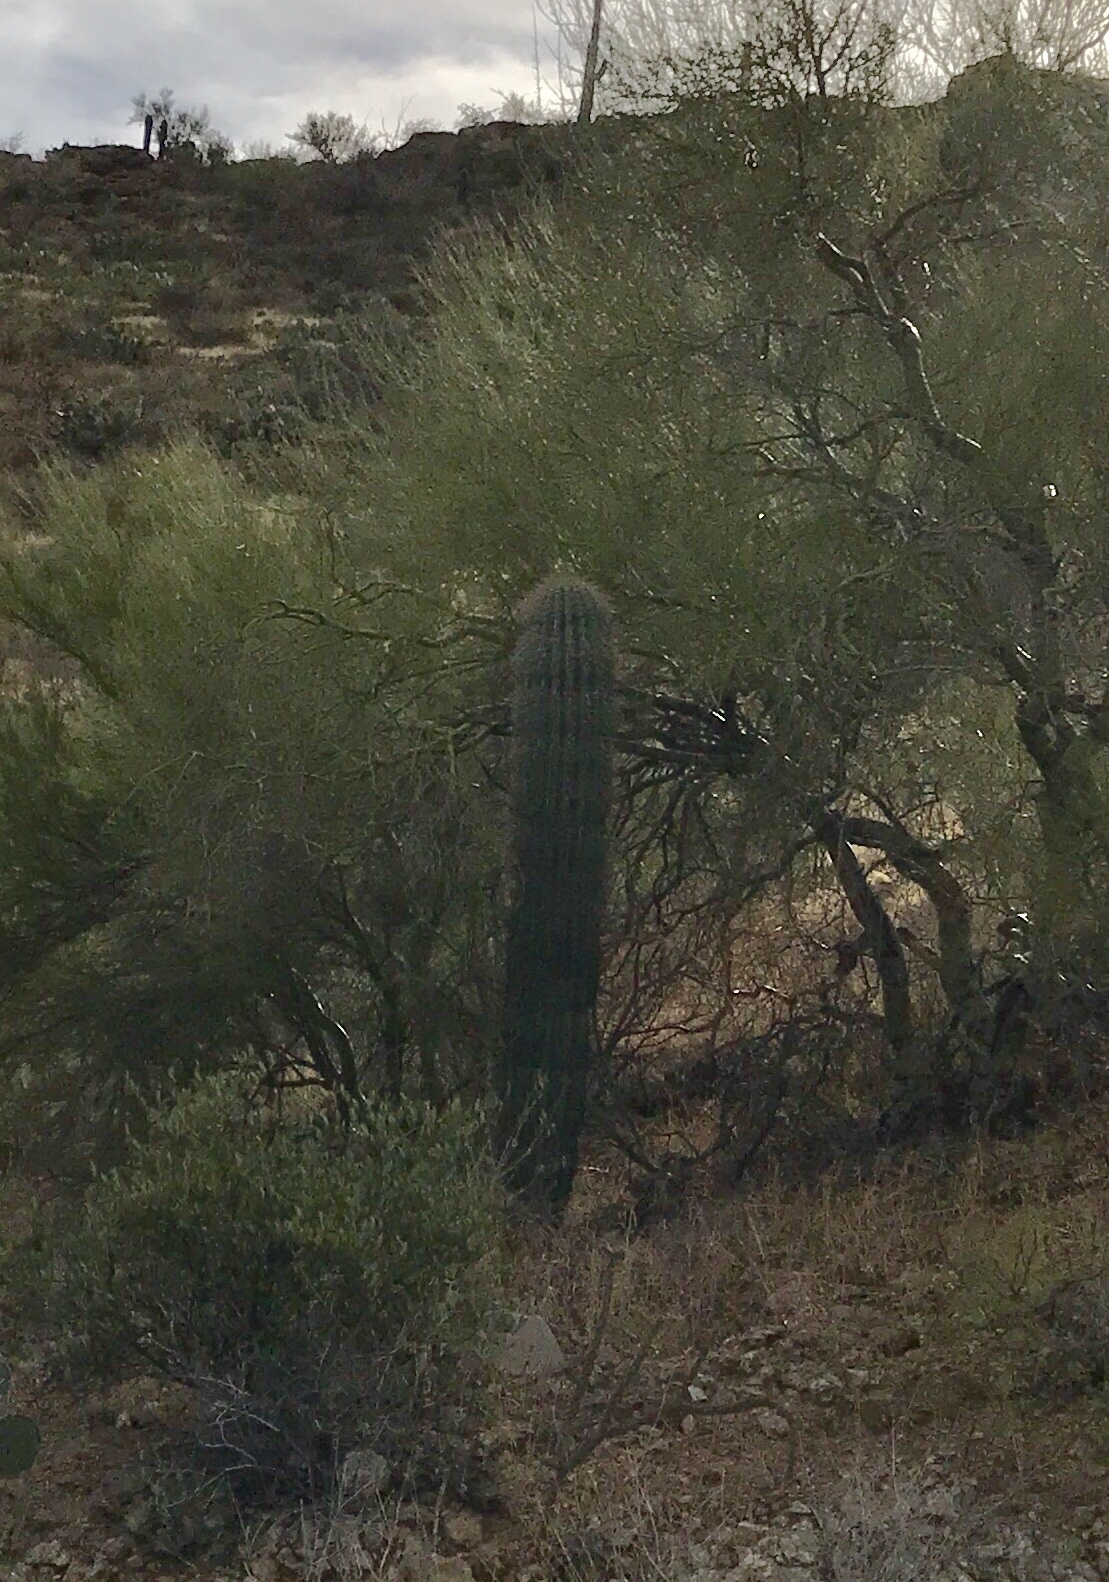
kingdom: Plantae
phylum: Tracheophyta
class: Magnoliopsida
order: Caryophyllales
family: Cactaceae
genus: Carnegiea
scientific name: Carnegiea gigantea
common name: Saguaro
